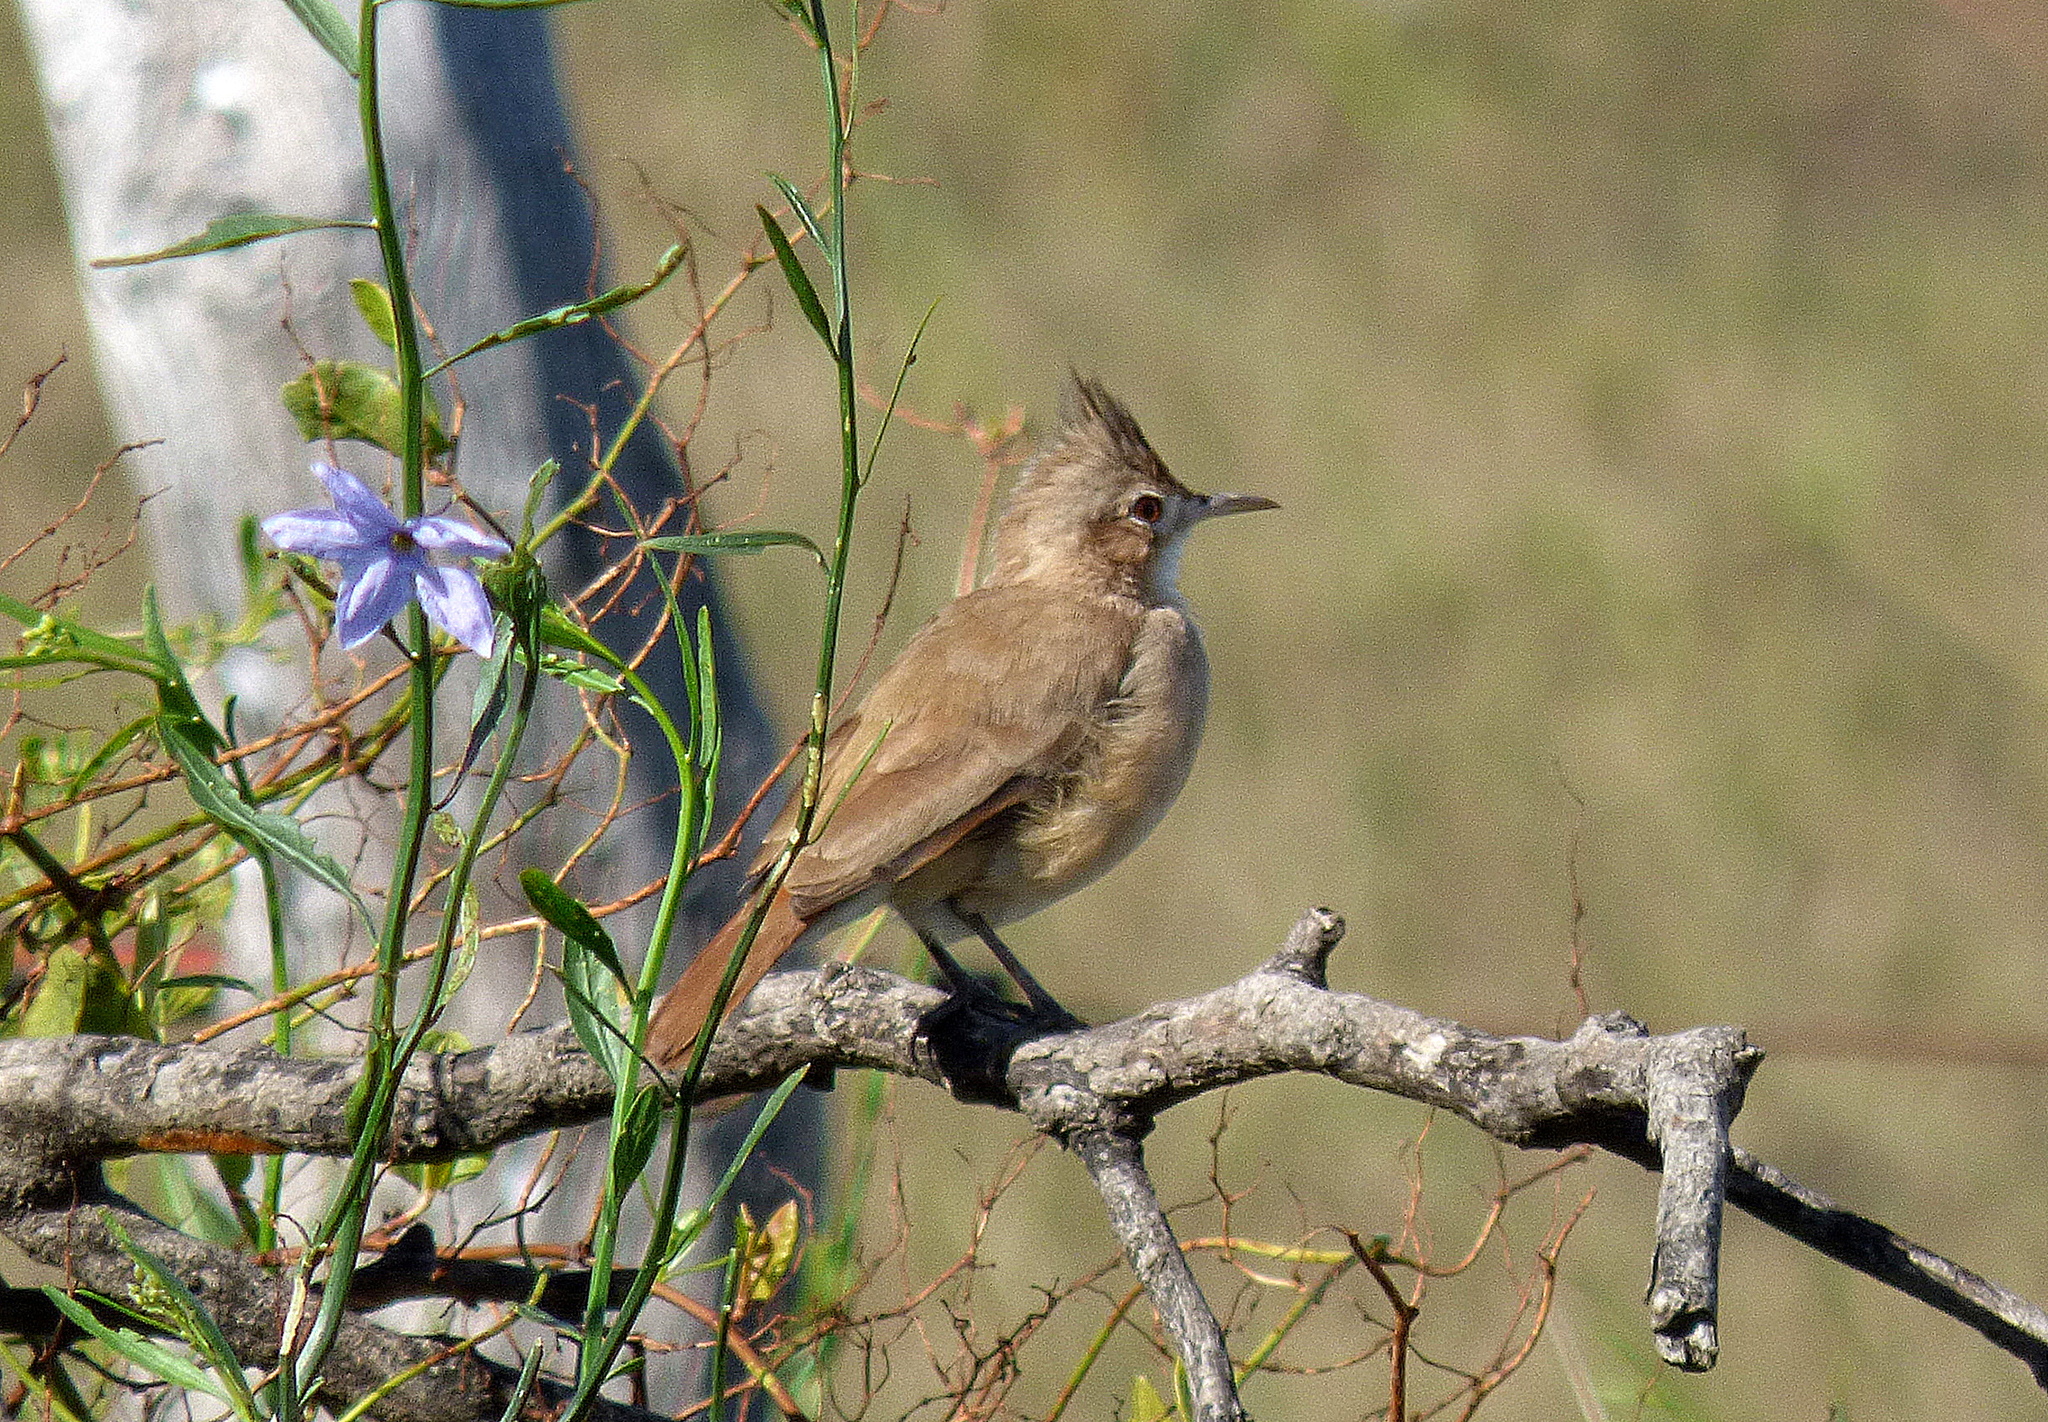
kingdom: Animalia
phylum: Chordata
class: Aves
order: Passeriformes
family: Furnariidae
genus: Furnarius
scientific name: Furnarius cristatus
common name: Crested hornero
